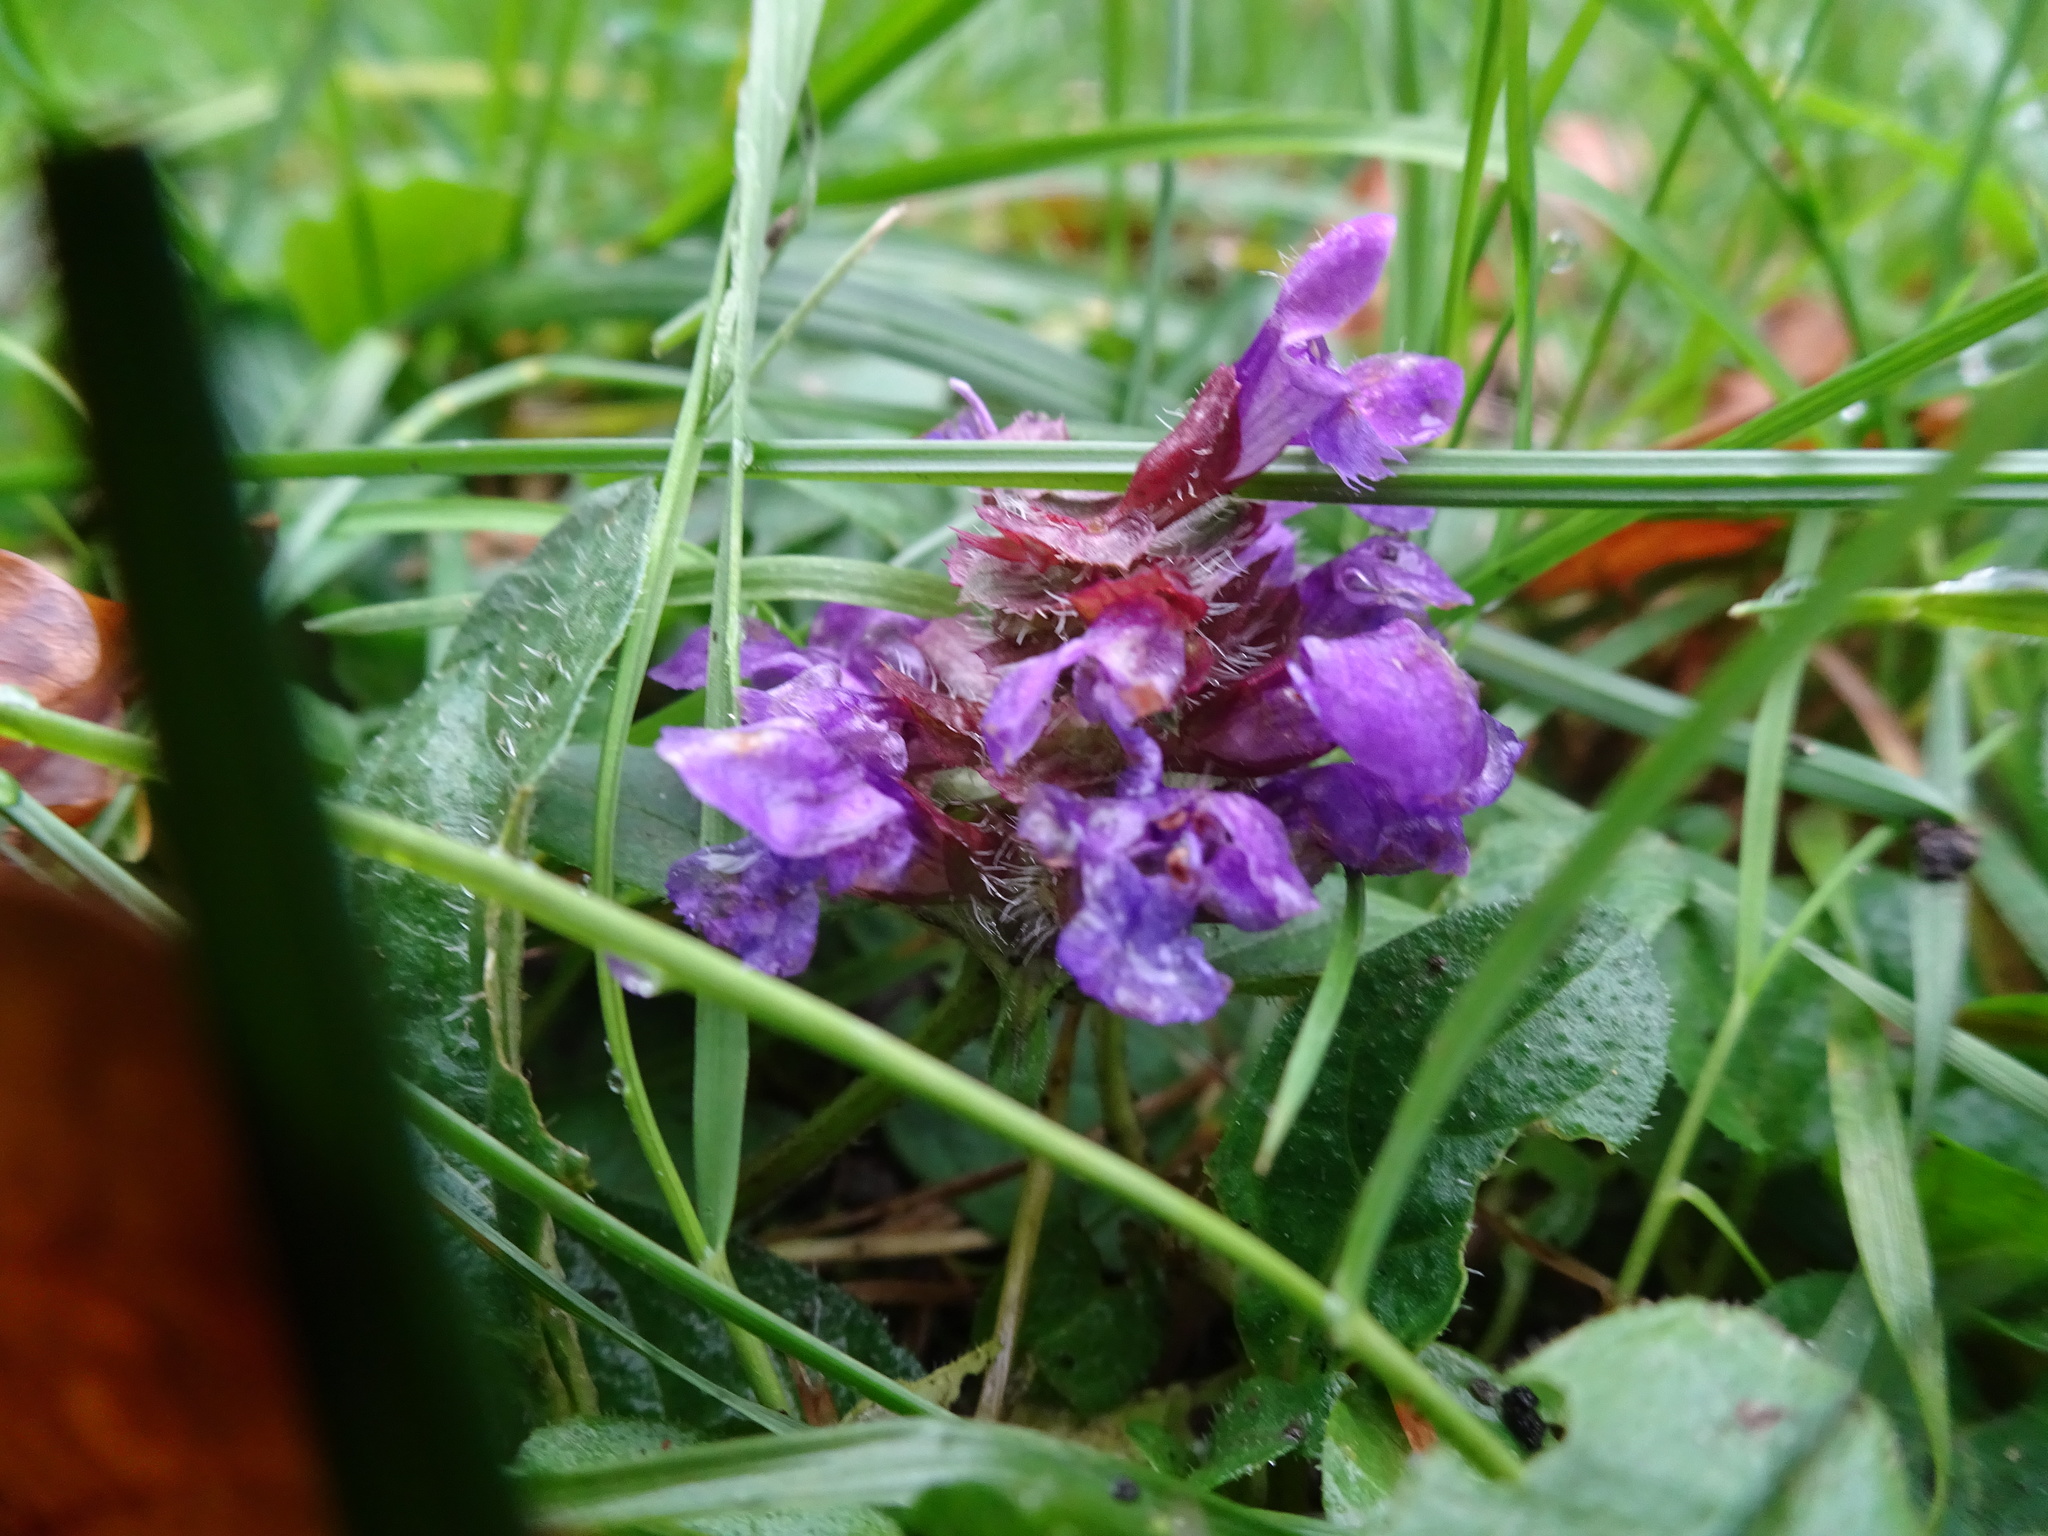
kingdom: Plantae
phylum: Tracheophyta
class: Magnoliopsida
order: Lamiales
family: Lamiaceae
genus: Prunella
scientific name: Prunella vulgaris
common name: Heal-all
